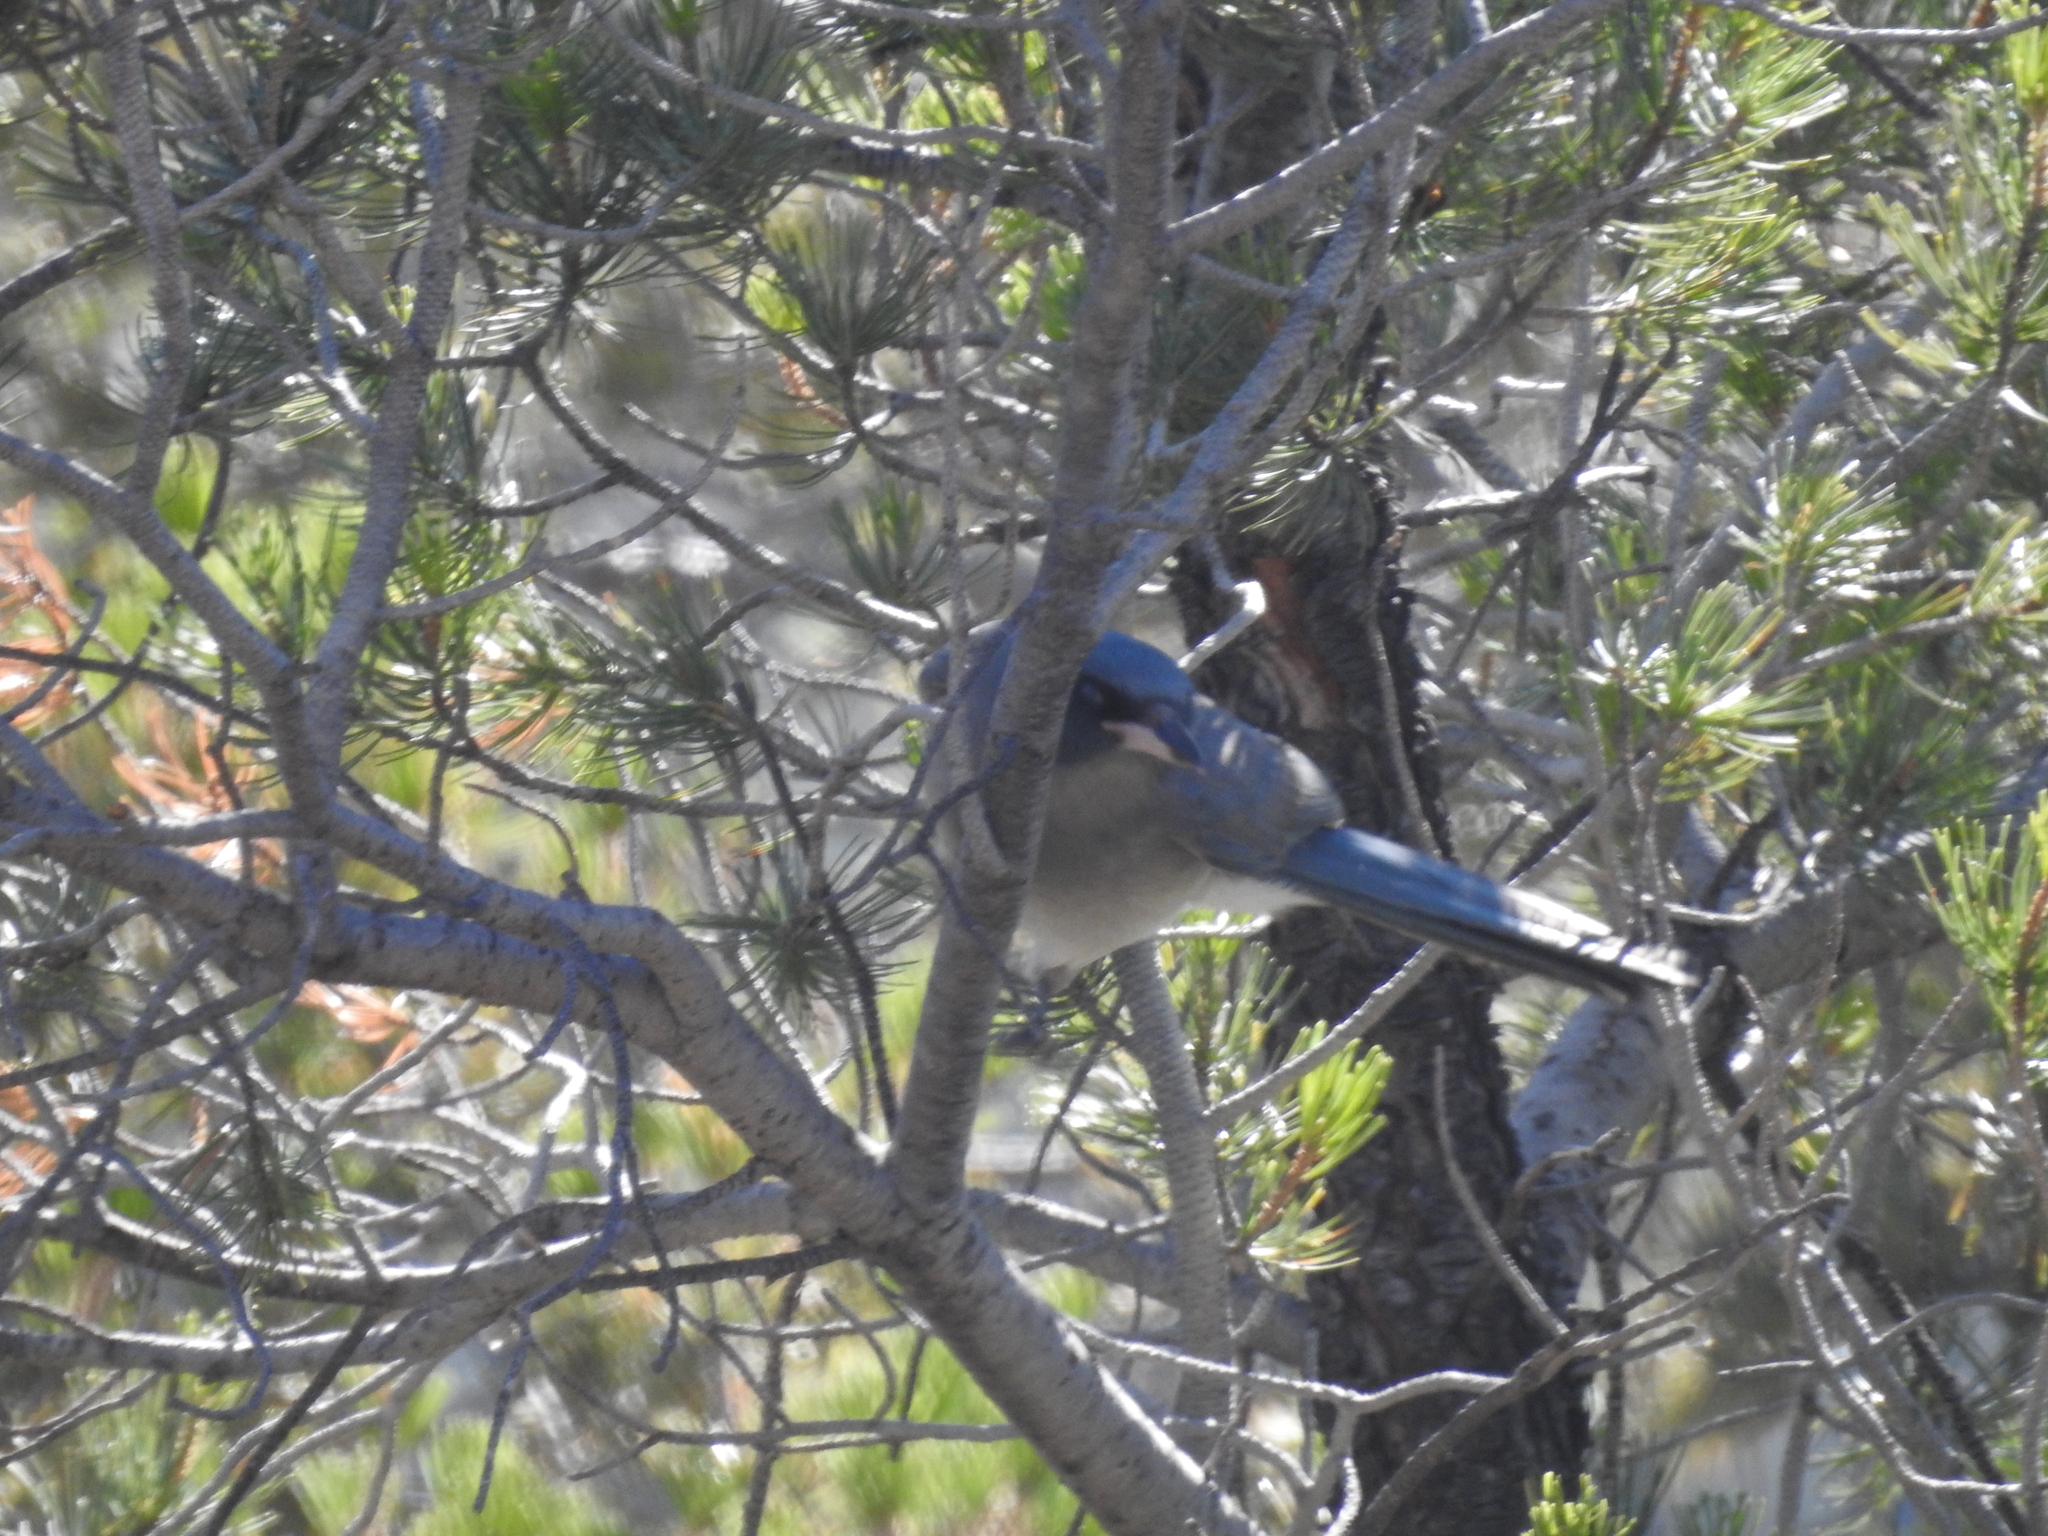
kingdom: Animalia
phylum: Chordata
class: Aves
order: Passeriformes
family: Corvidae
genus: Aphelocoma
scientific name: Aphelocoma wollweberi
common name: Mexican jay
